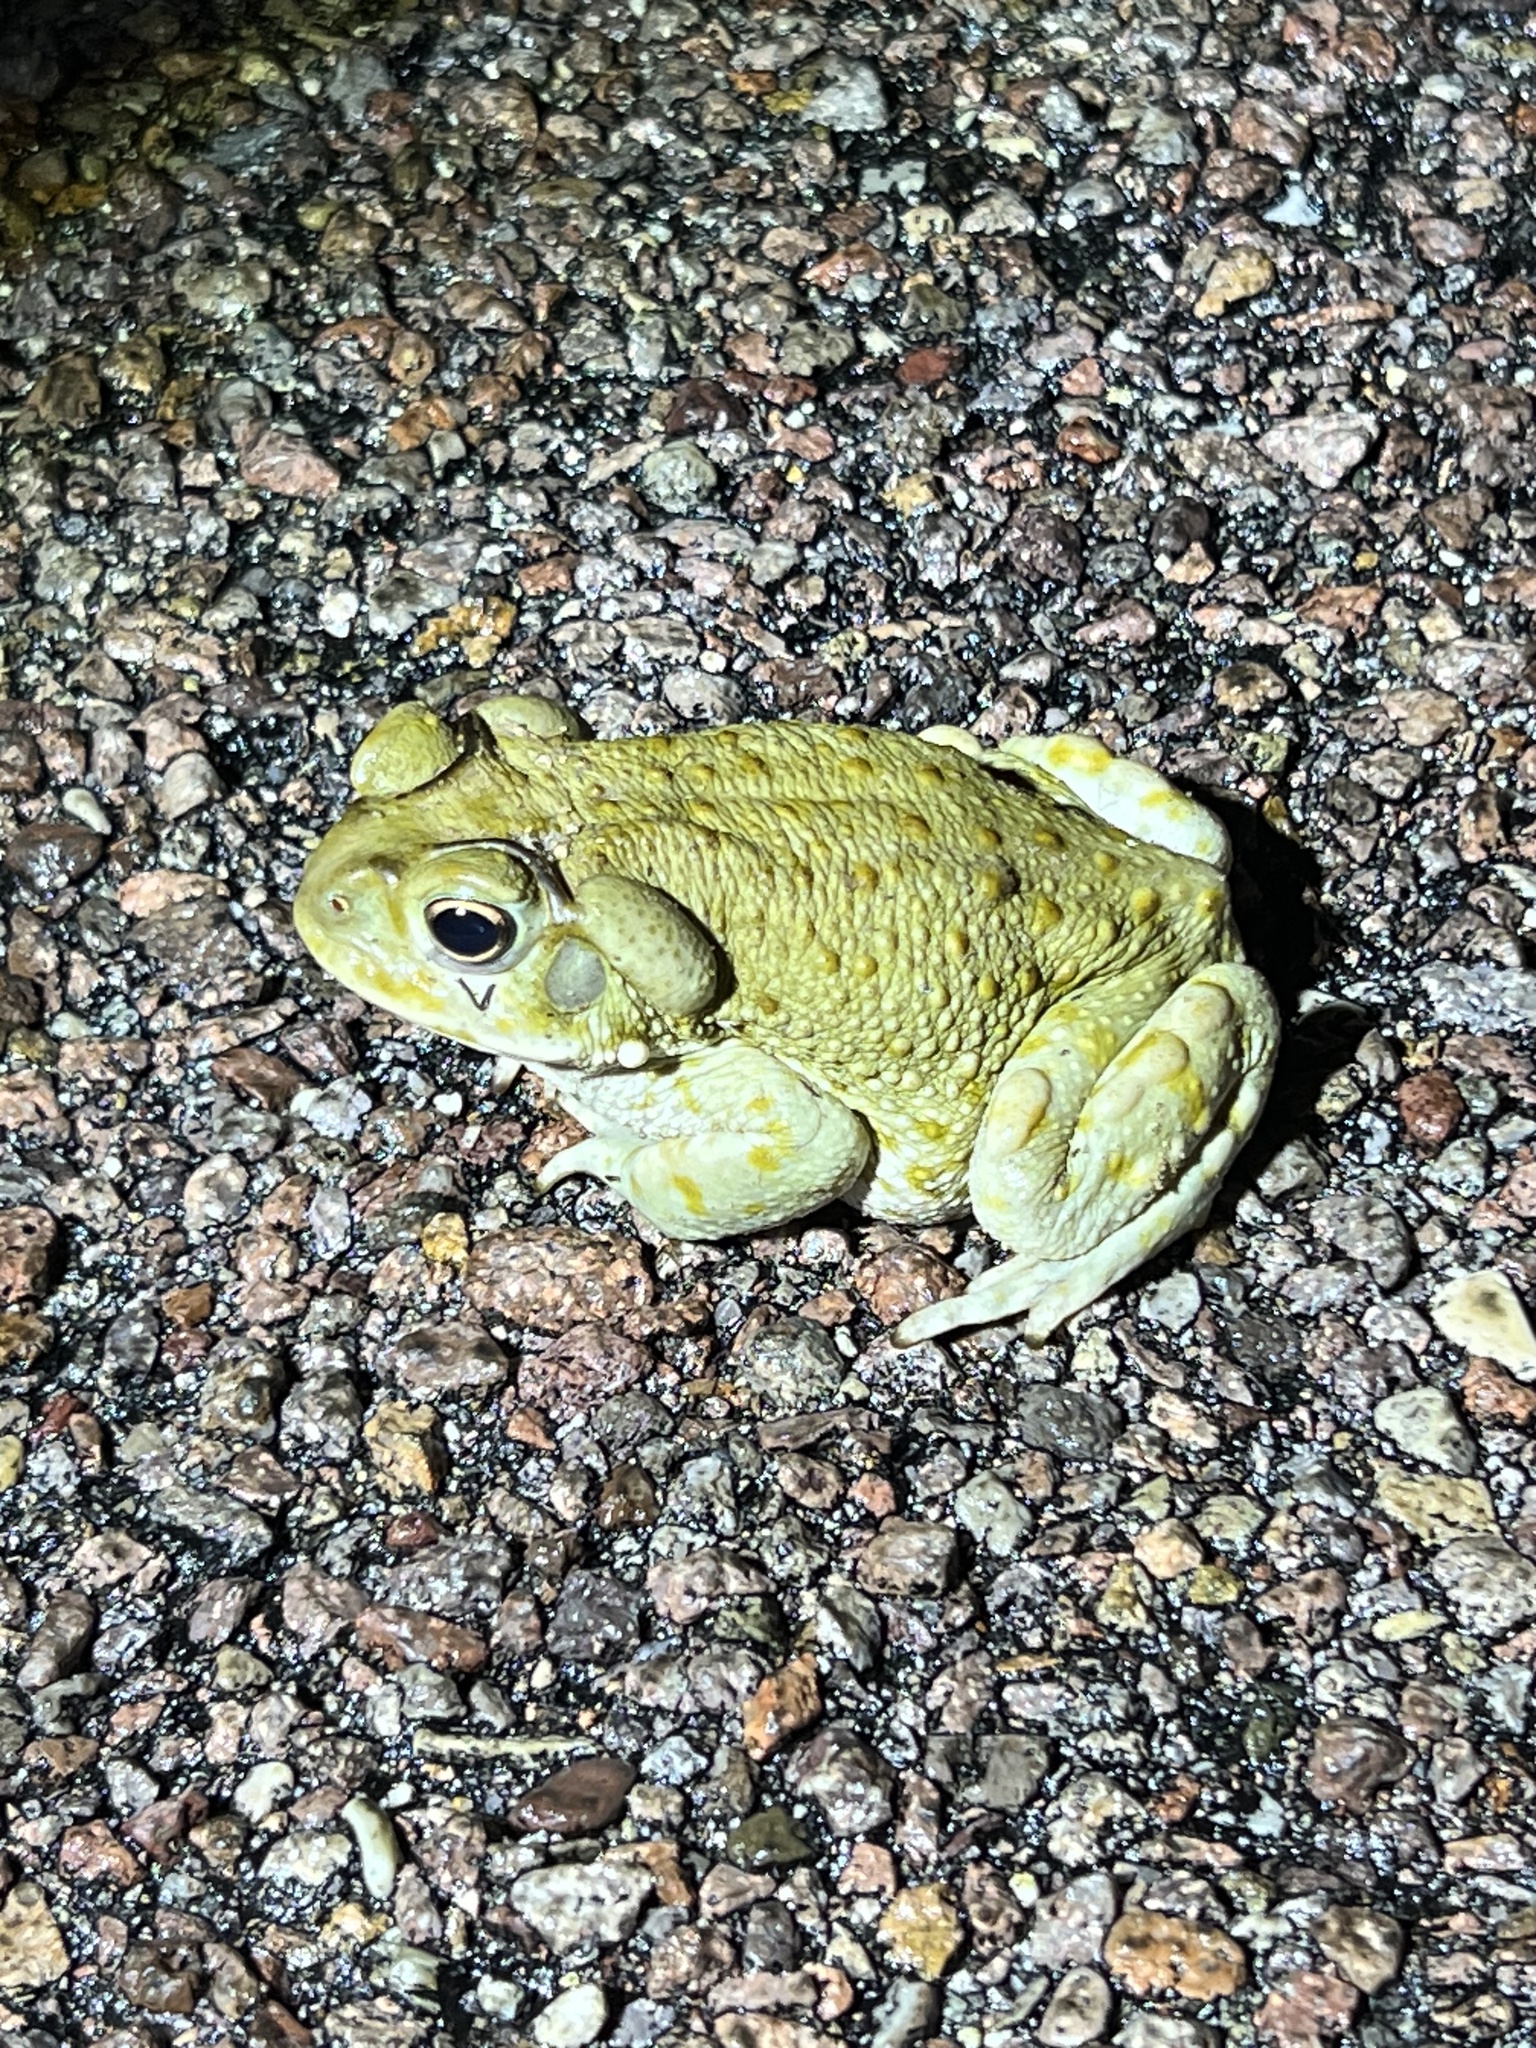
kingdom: Animalia
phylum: Chordata
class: Amphibia
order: Anura
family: Bufonidae
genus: Incilius
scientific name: Incilius alvarius
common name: Sonoran desert toad
